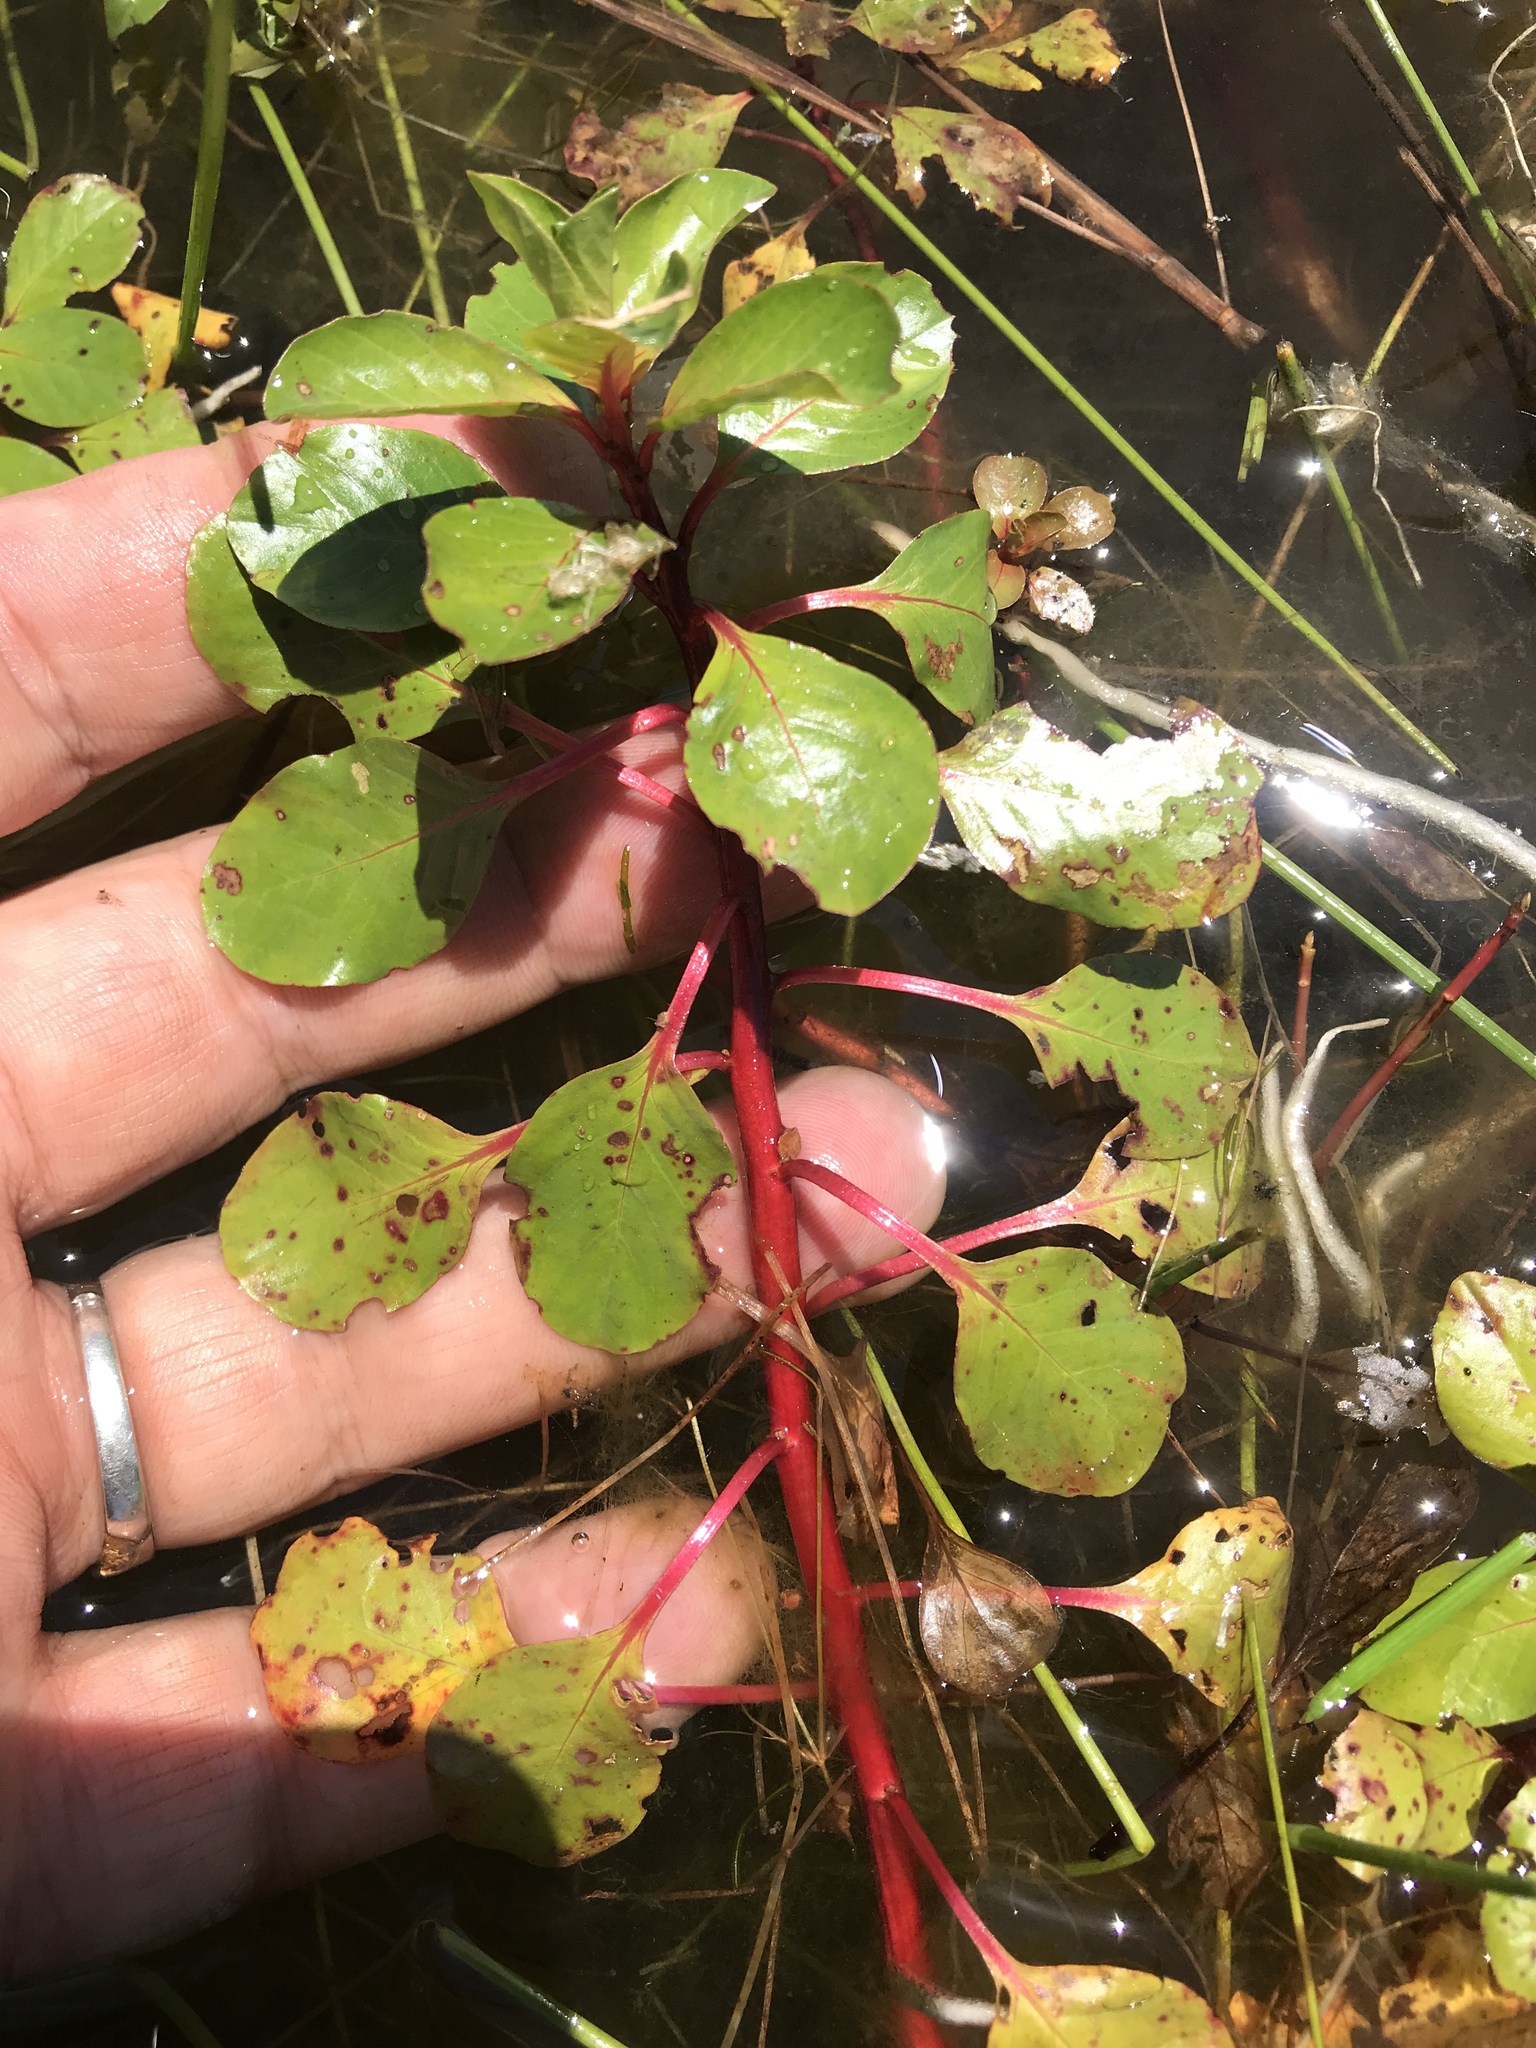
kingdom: Plantae
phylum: Tracheophyta
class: Magnoliopsida
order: Myrtales
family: Onagraceae
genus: Ludwigia
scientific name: Ludwigia peploides
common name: Floating primrose-willow
